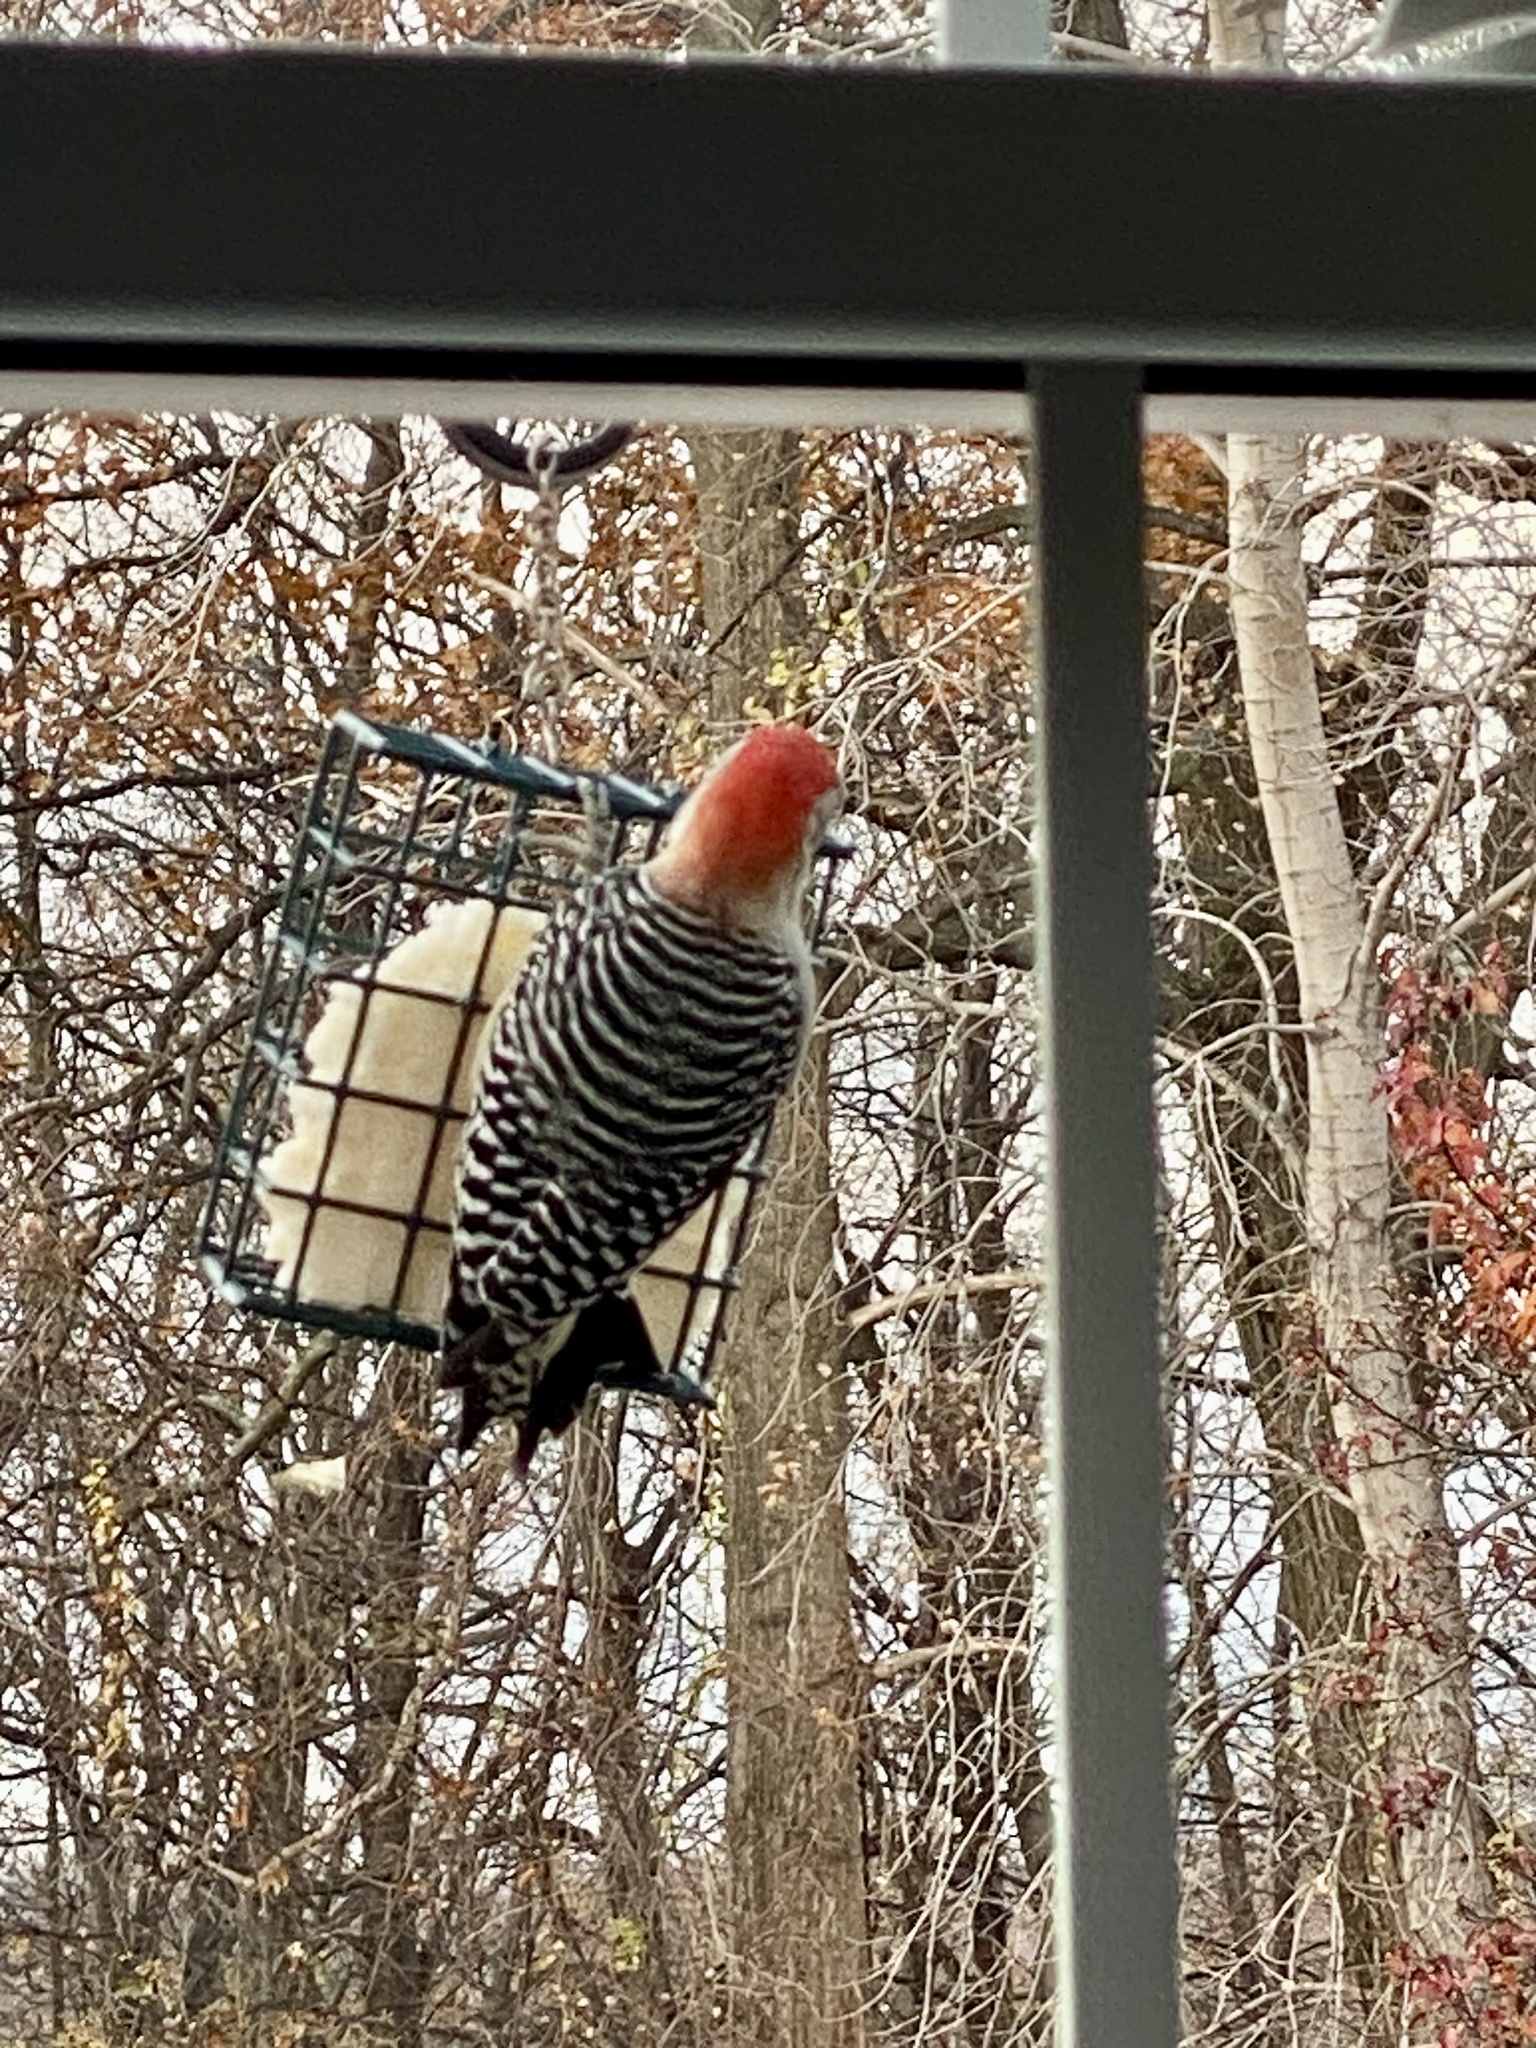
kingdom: Animalia
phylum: Chordata
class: Aves
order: Piciformes
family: Picidae
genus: Melanerpes
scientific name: Melanerpes carolinus
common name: Red-bellied woodpecker
